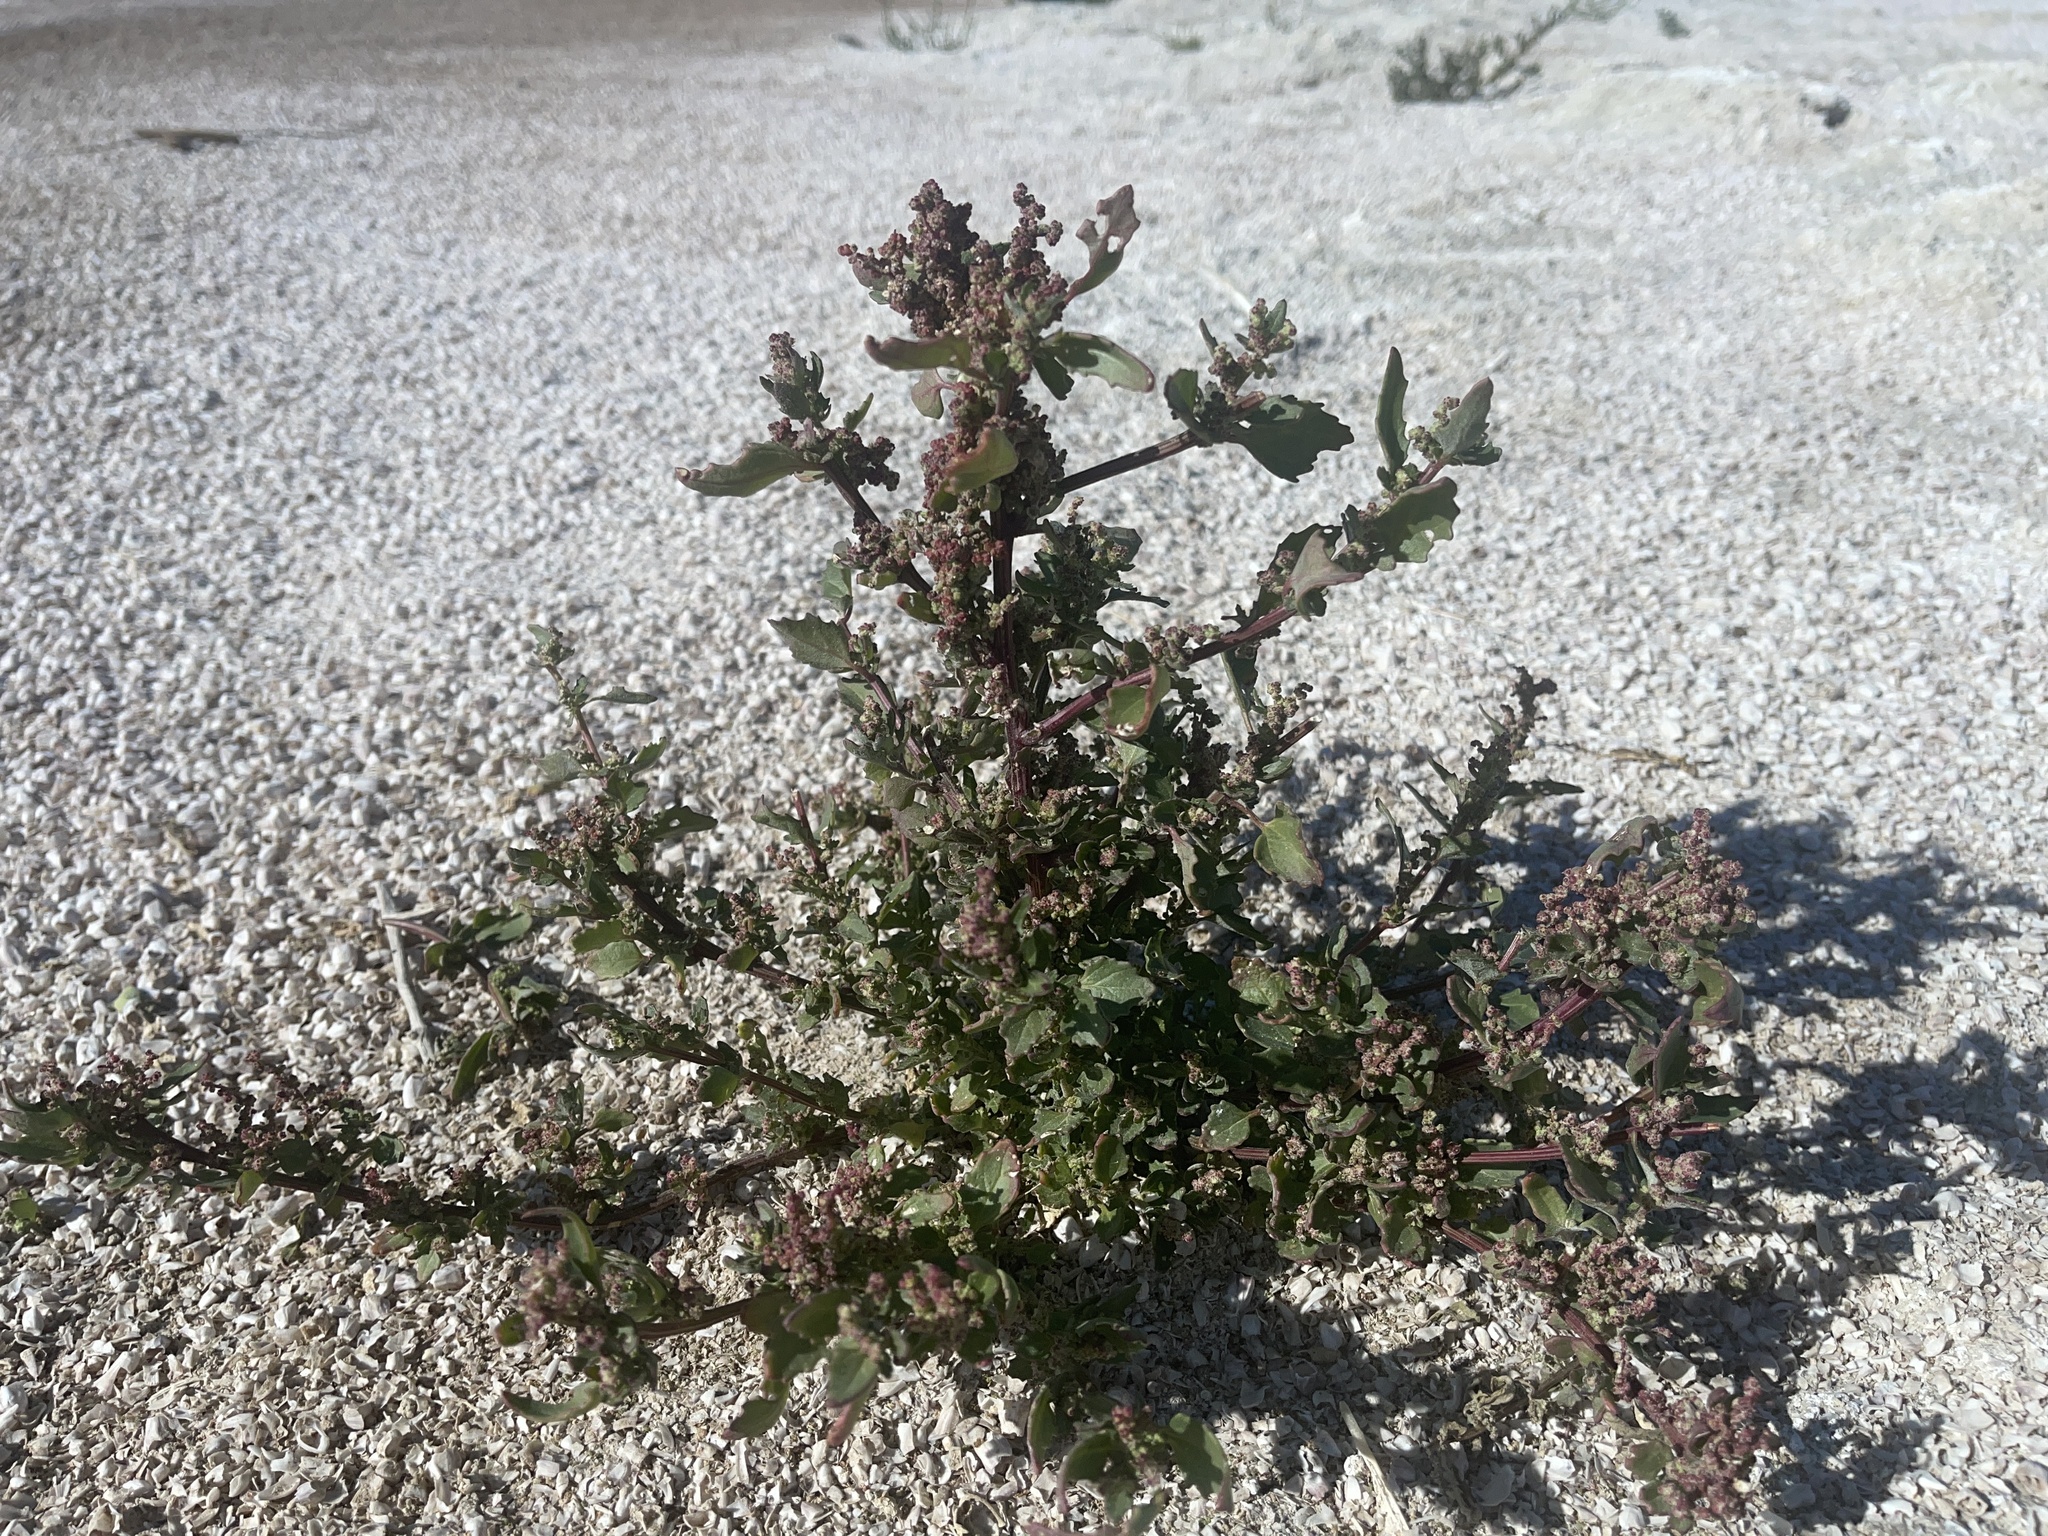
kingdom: Plantae
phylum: Tracheophyta
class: Magnoliopsida
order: Caryophyllales
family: Amaranthaceae
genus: Chenopodiastrum
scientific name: Chenopodiastrum murale
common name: Sowbane
